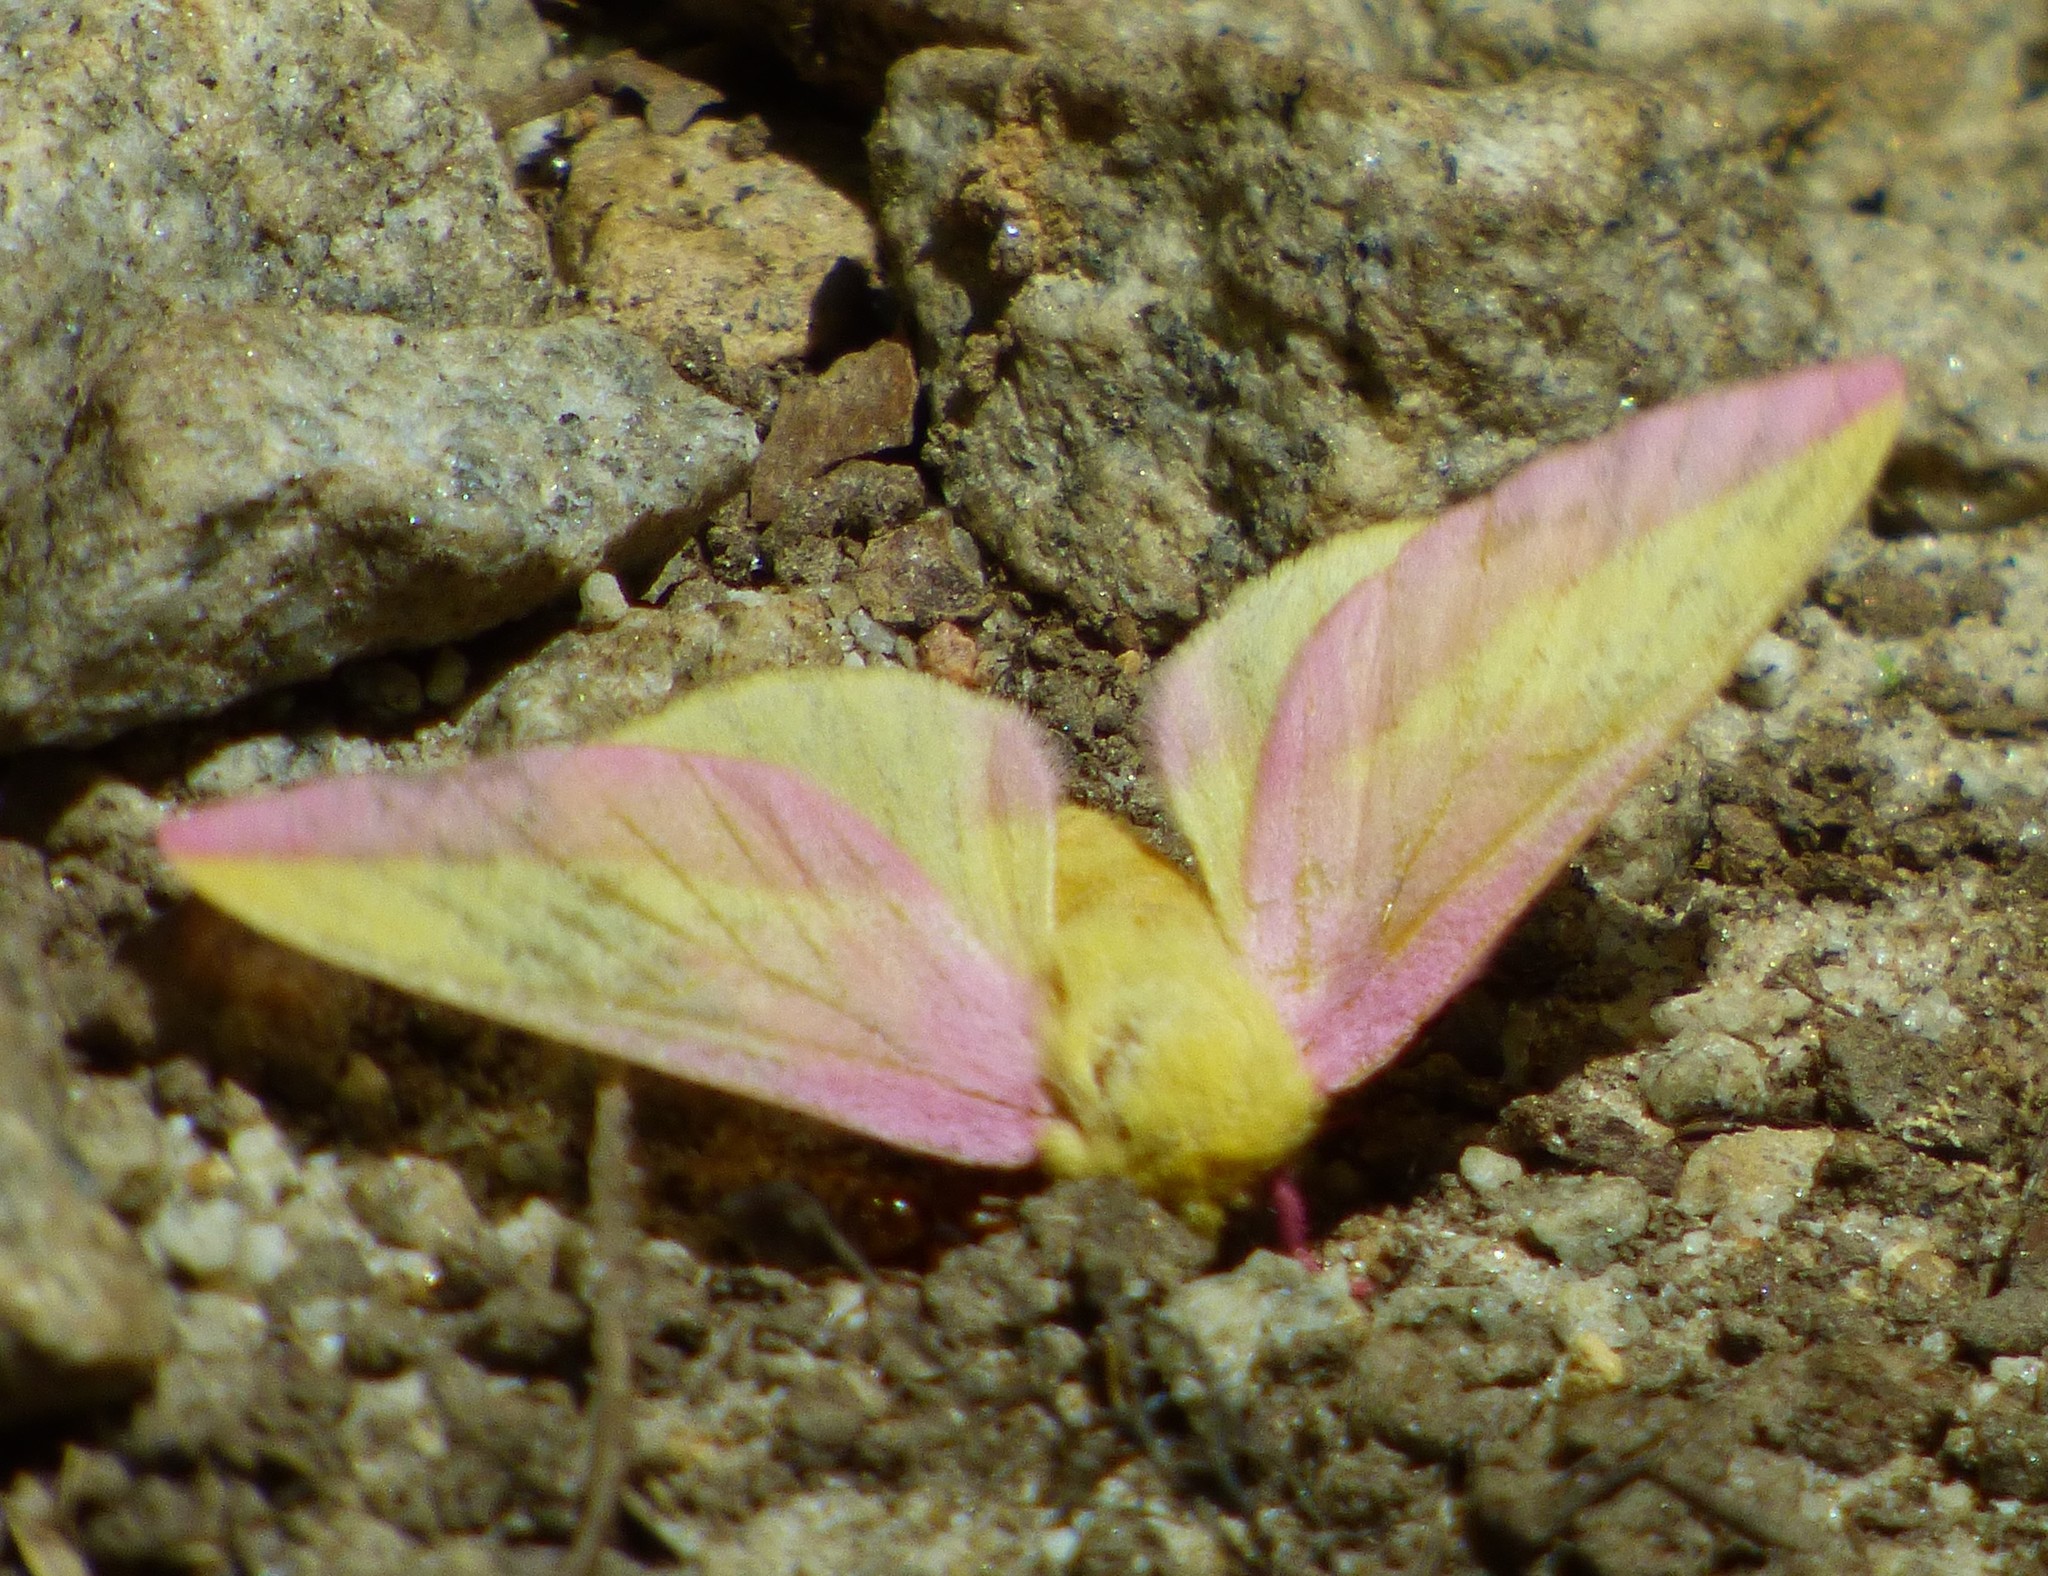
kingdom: Animalia
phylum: Arthropoda
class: Insecta
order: Lepidoptera
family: Saturniidae
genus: Dryocampa
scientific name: Dryocampa rubicunda
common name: Rosy maple moth
